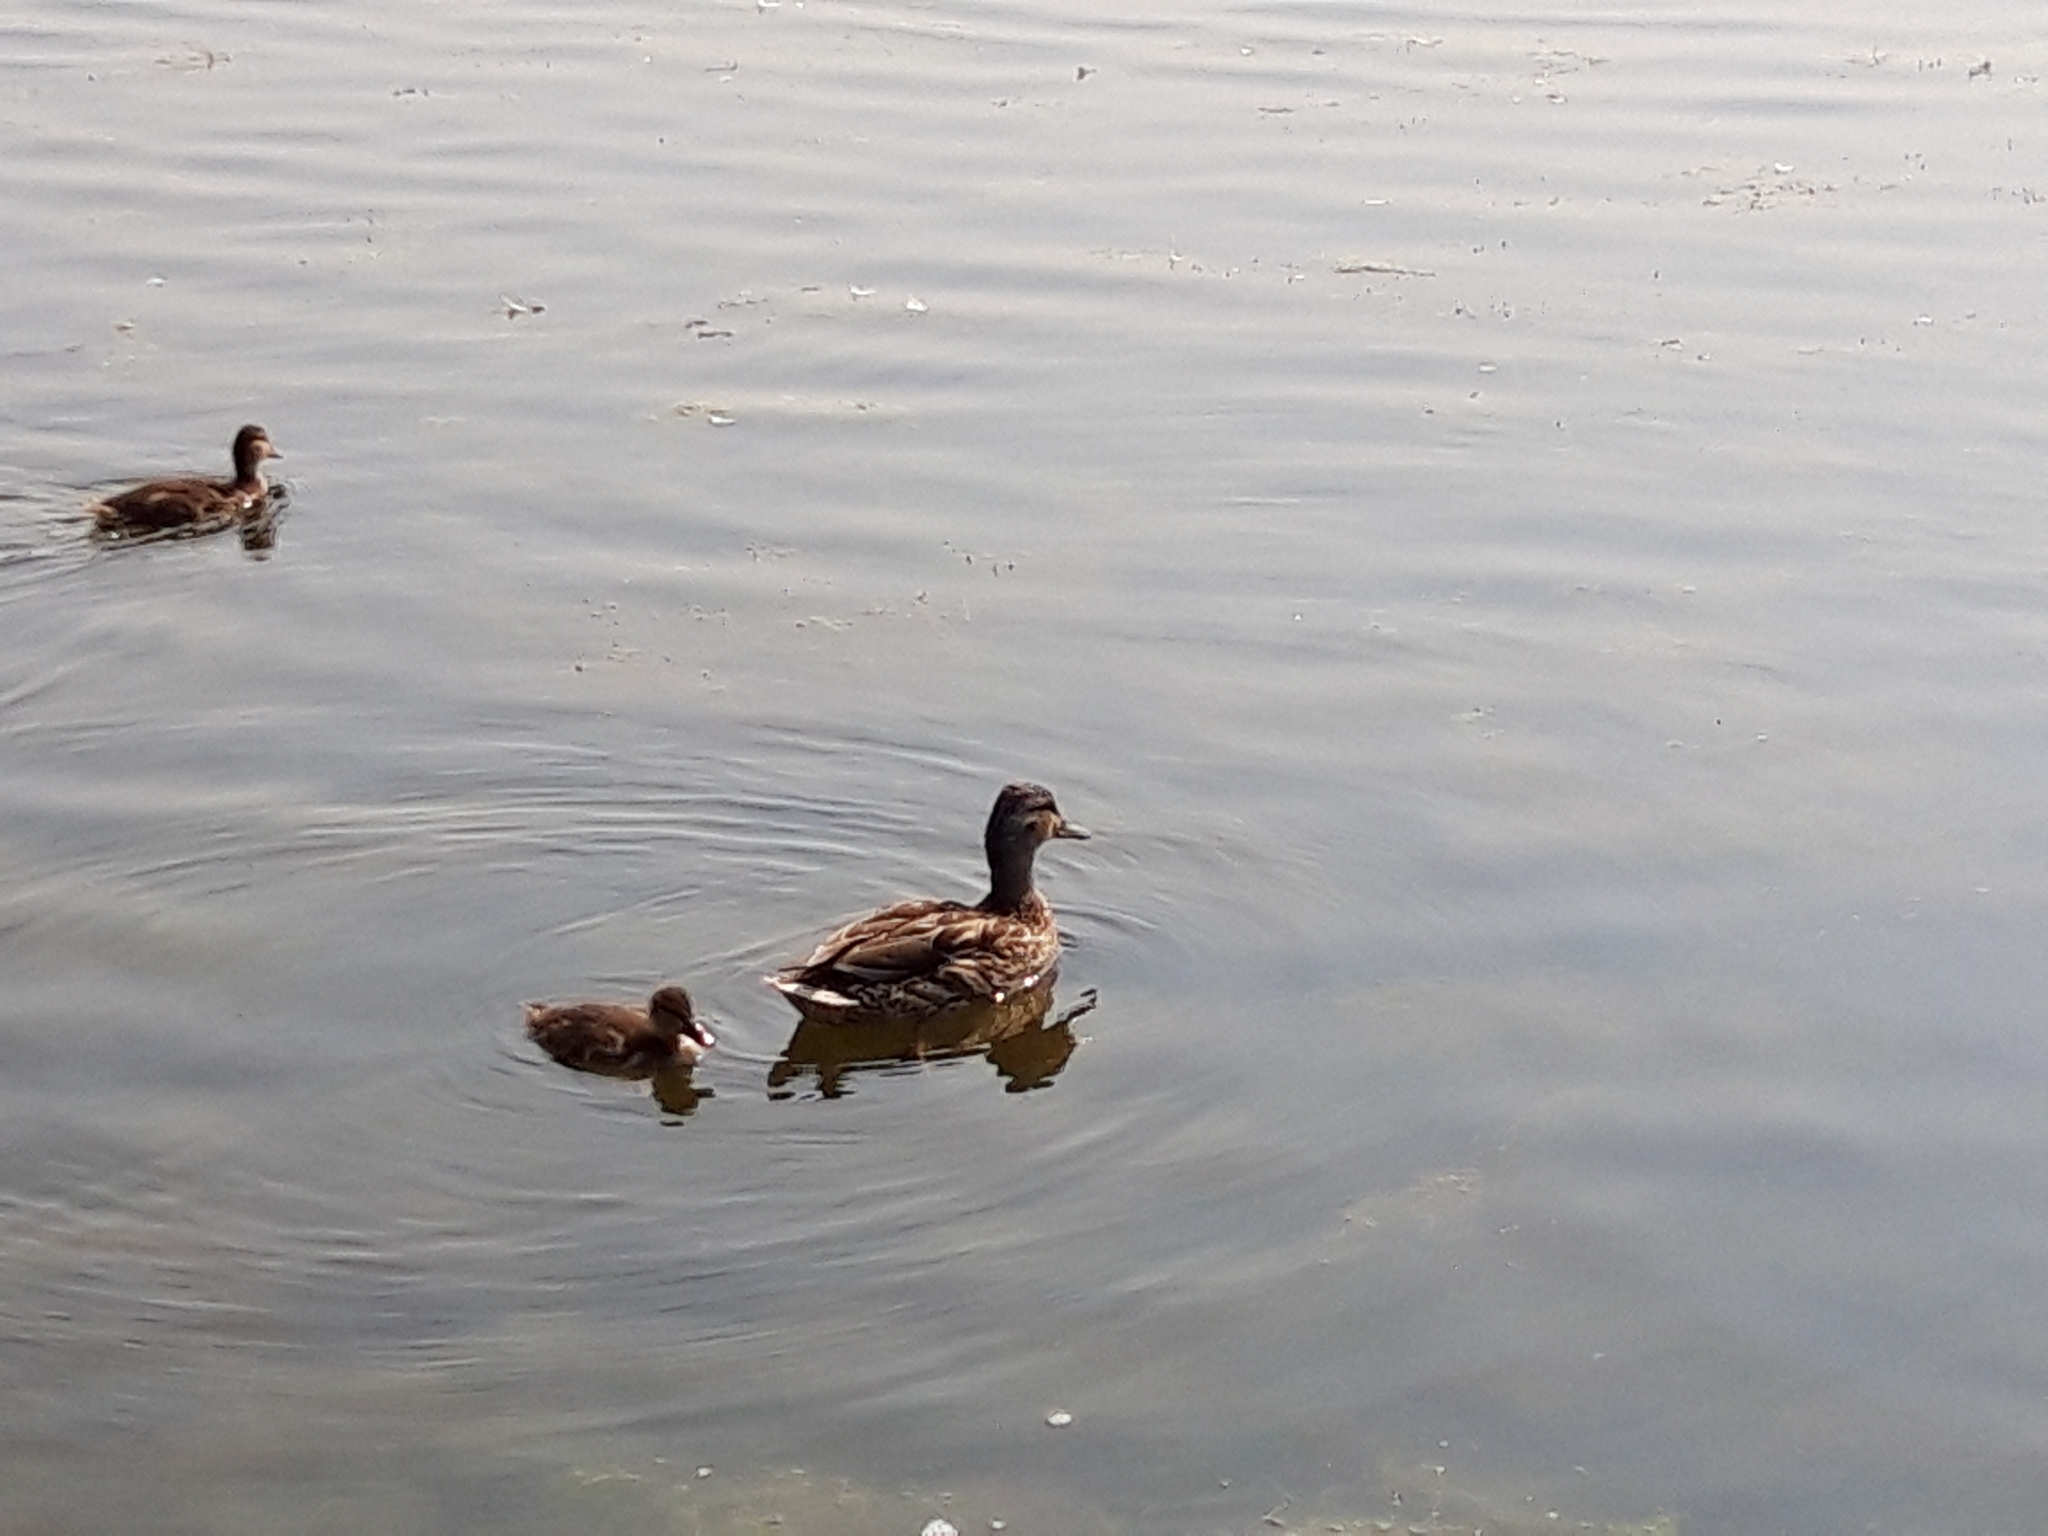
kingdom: Animalia
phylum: Chordata
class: Aves
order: Anseriformes
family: Anatidae
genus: Anas
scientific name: Anas platyrhynchos
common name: Mallard
